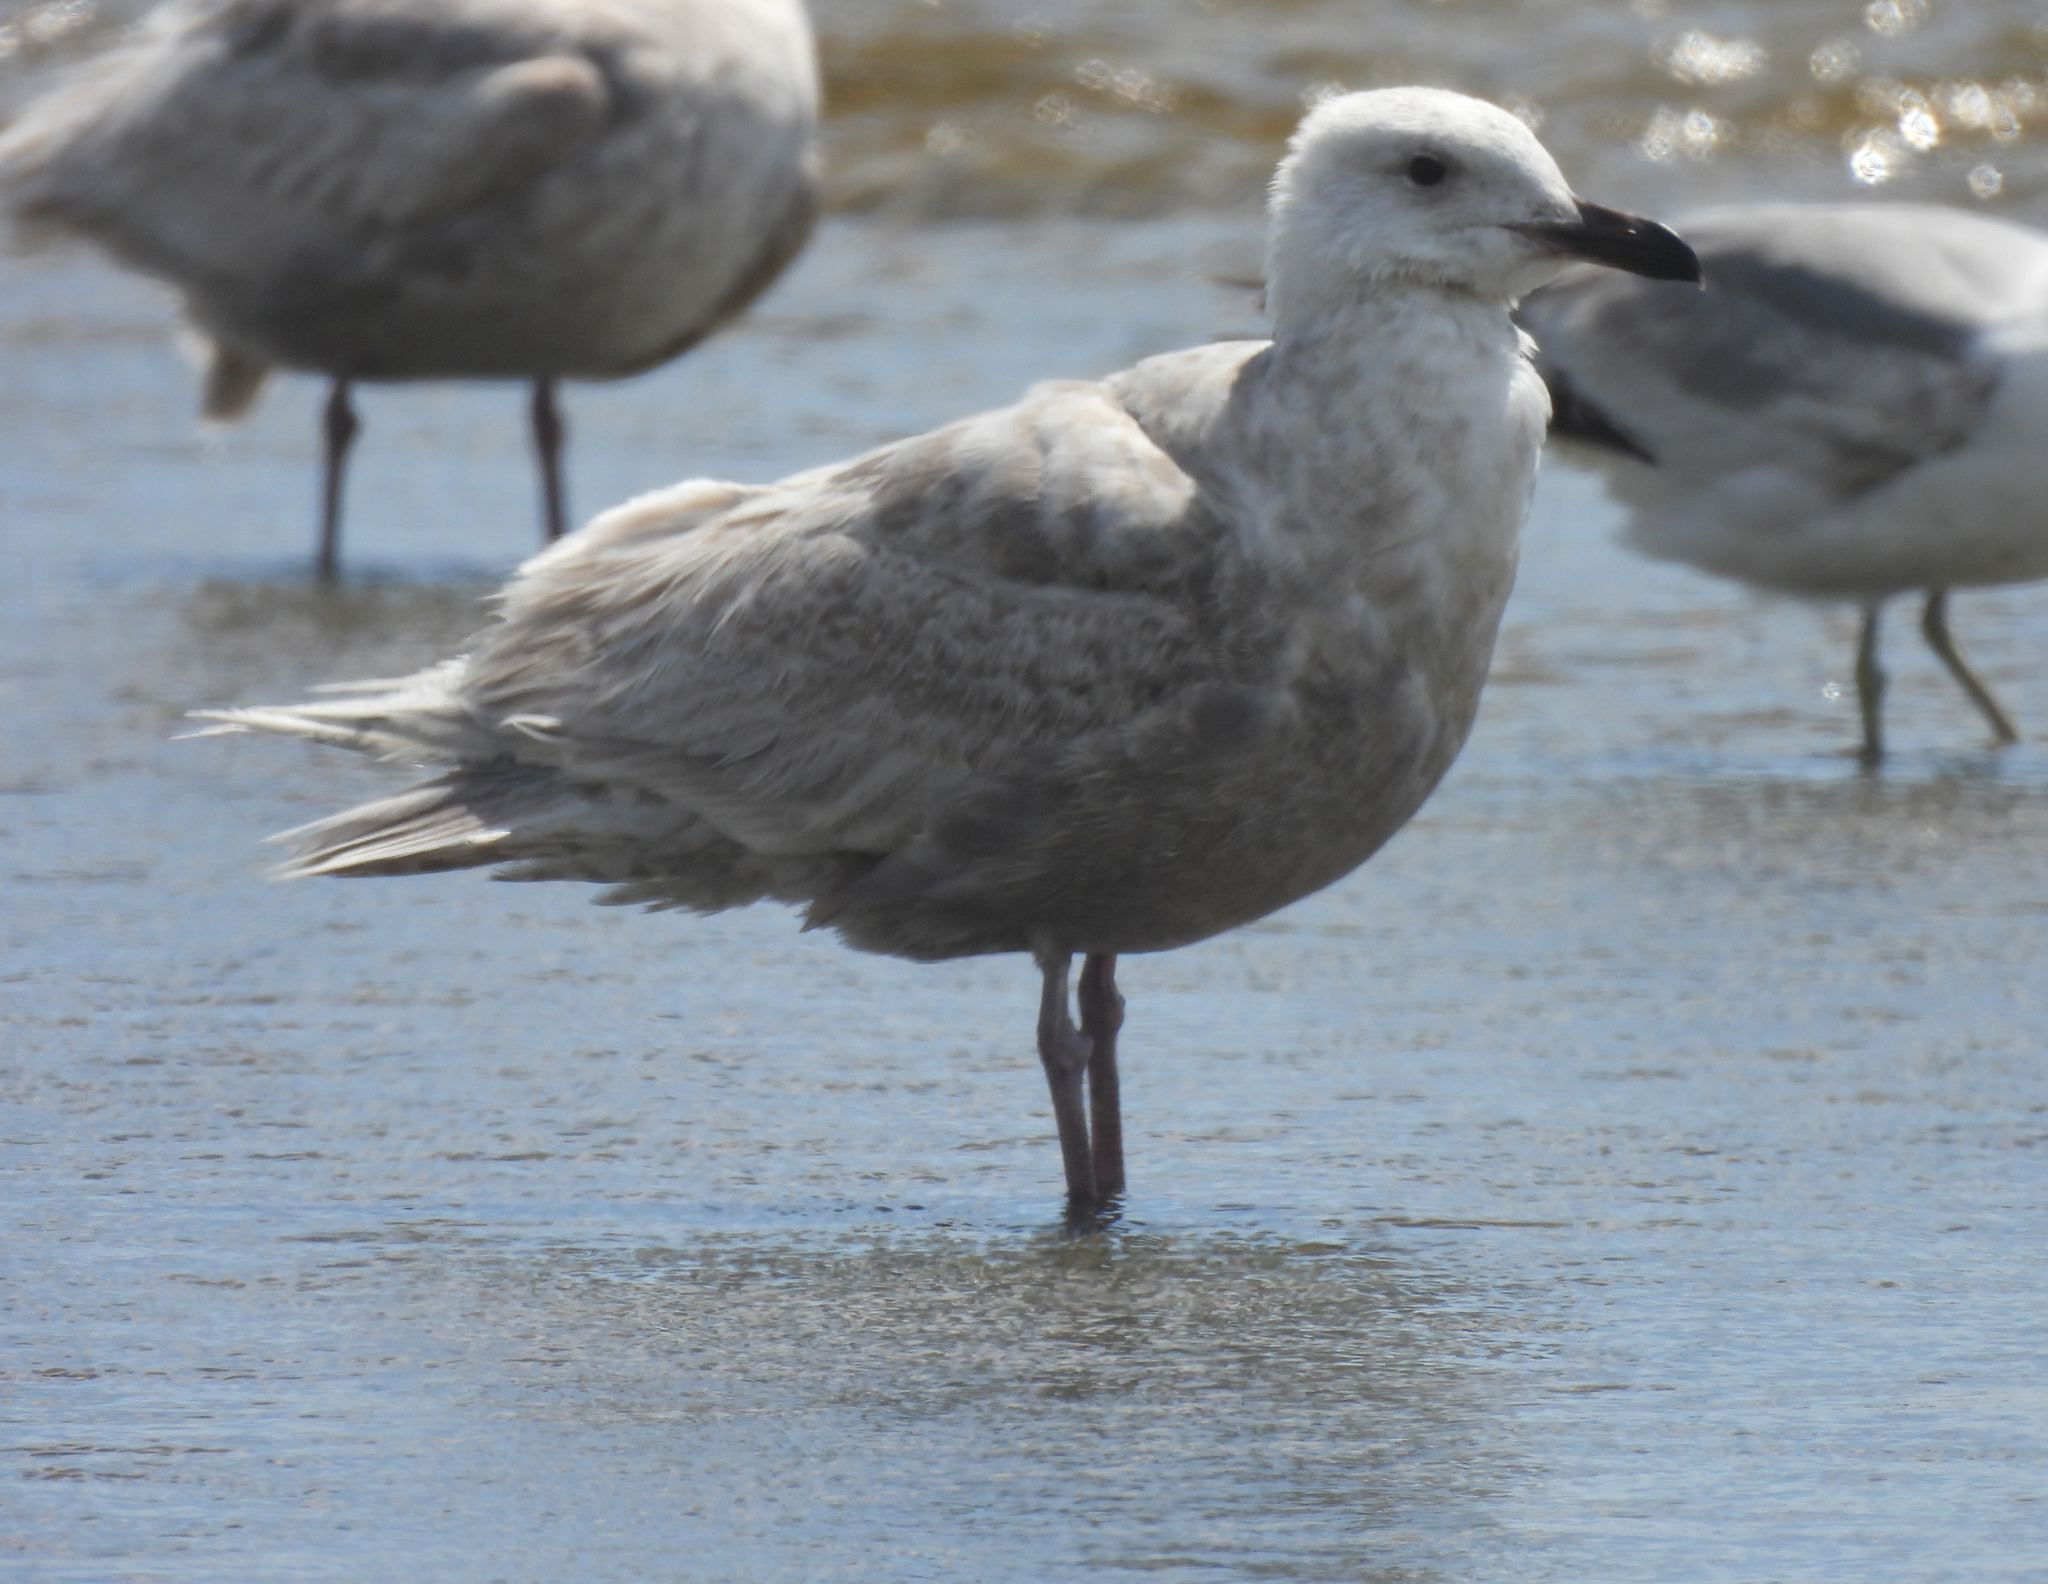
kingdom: Animalia
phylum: Chordata
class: Aves
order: Charadriiformes
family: Laridae
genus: Larus
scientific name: Larus glaucescens
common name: Glaucous-winged gull
